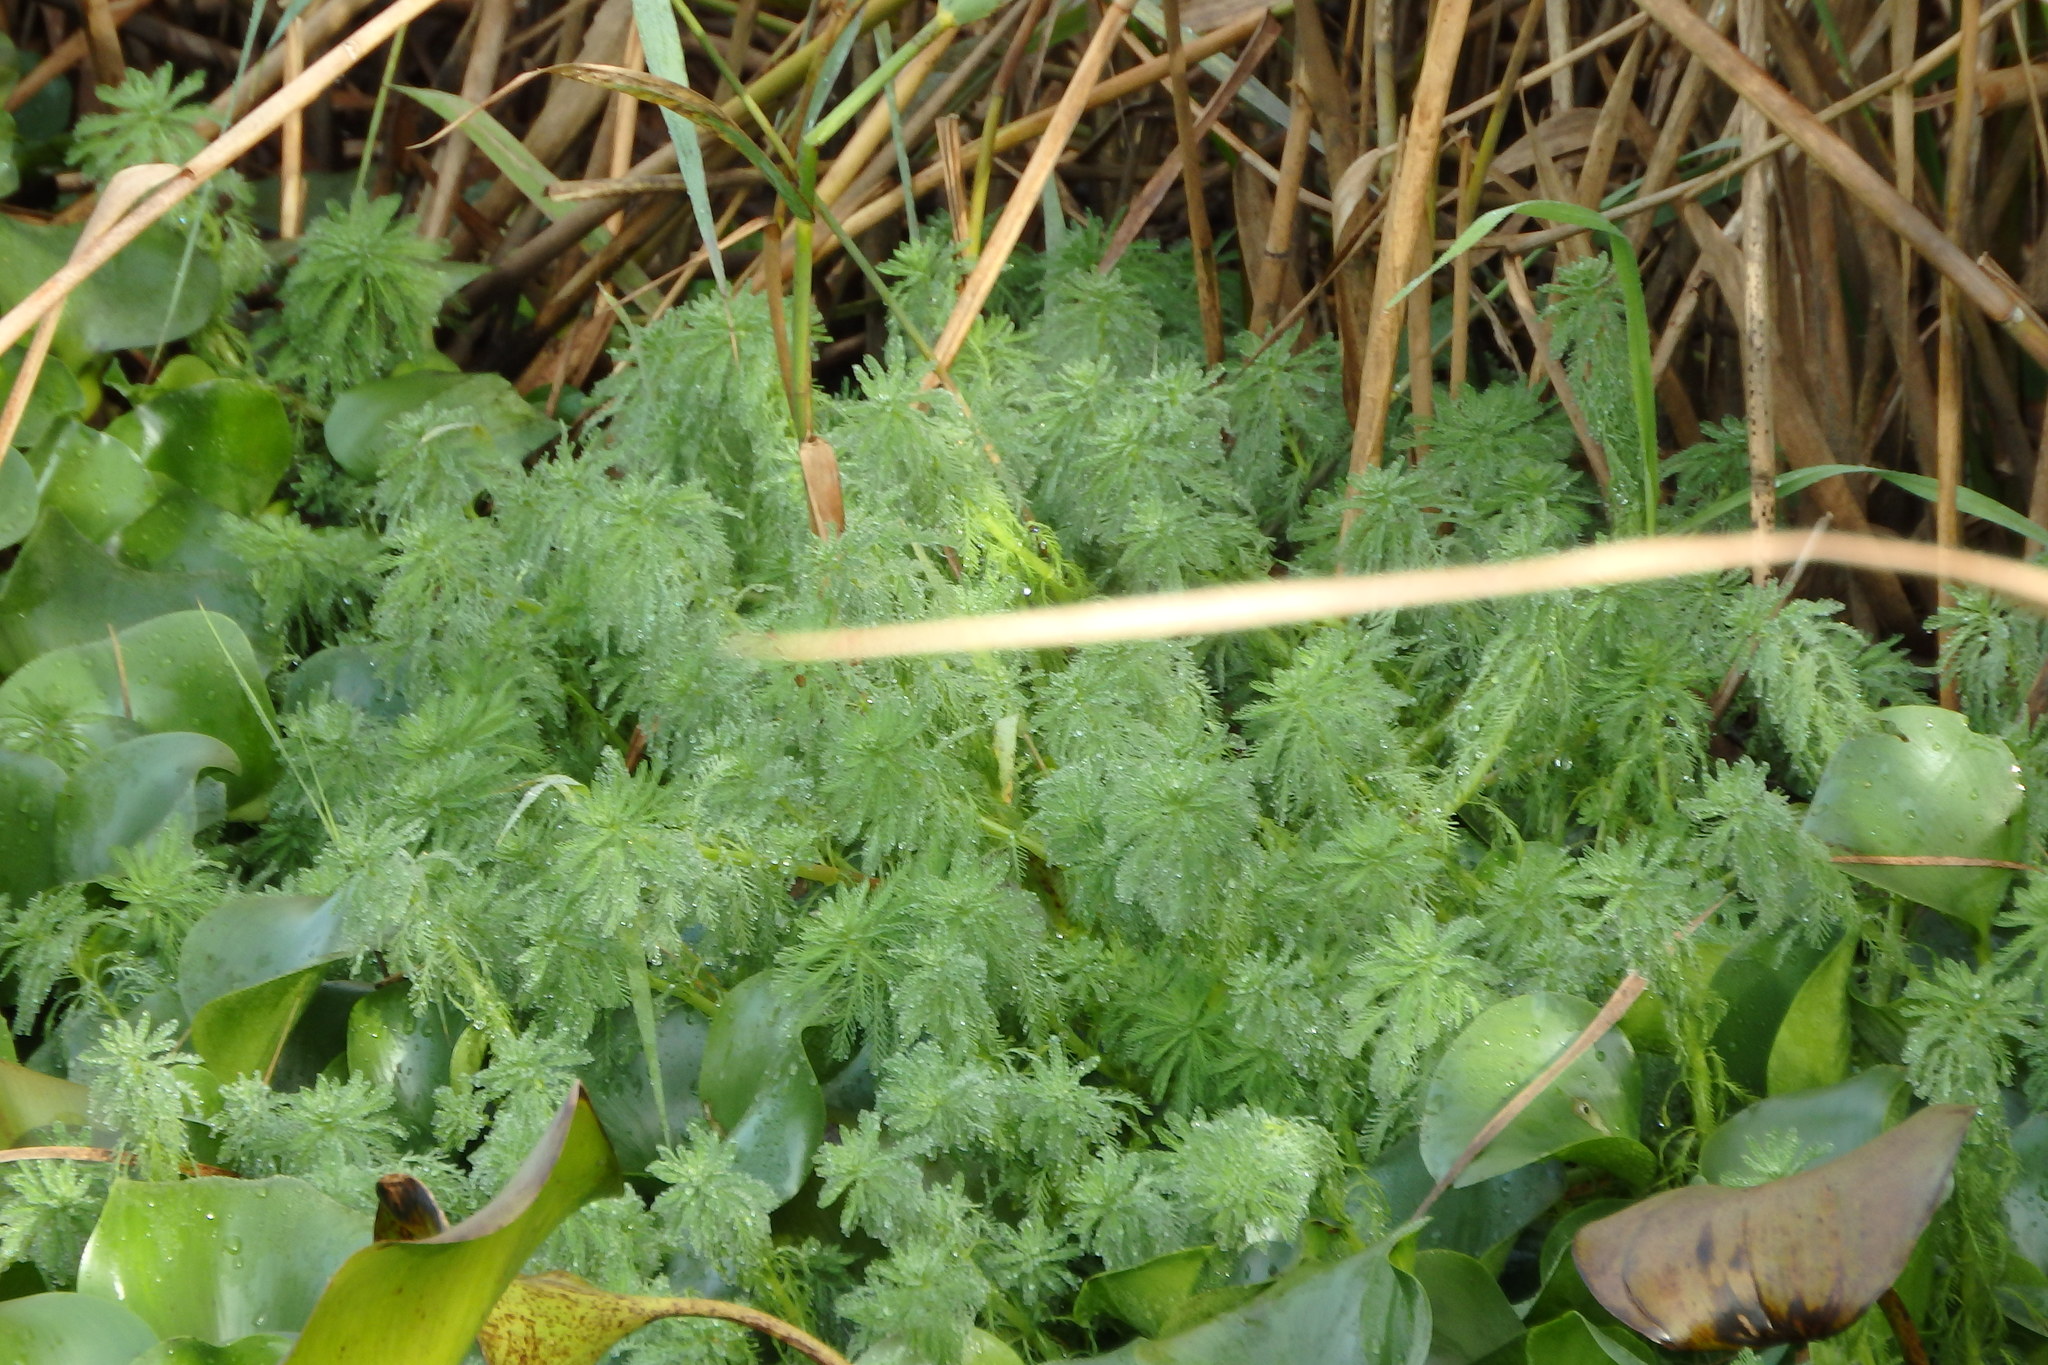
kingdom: Plantae
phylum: Tracheophyta
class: Magnoliopsida
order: Saxifragales
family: Haloragaceae
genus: Myriophyllum
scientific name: Myriophyllum aquaticum
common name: Parrot's feather
